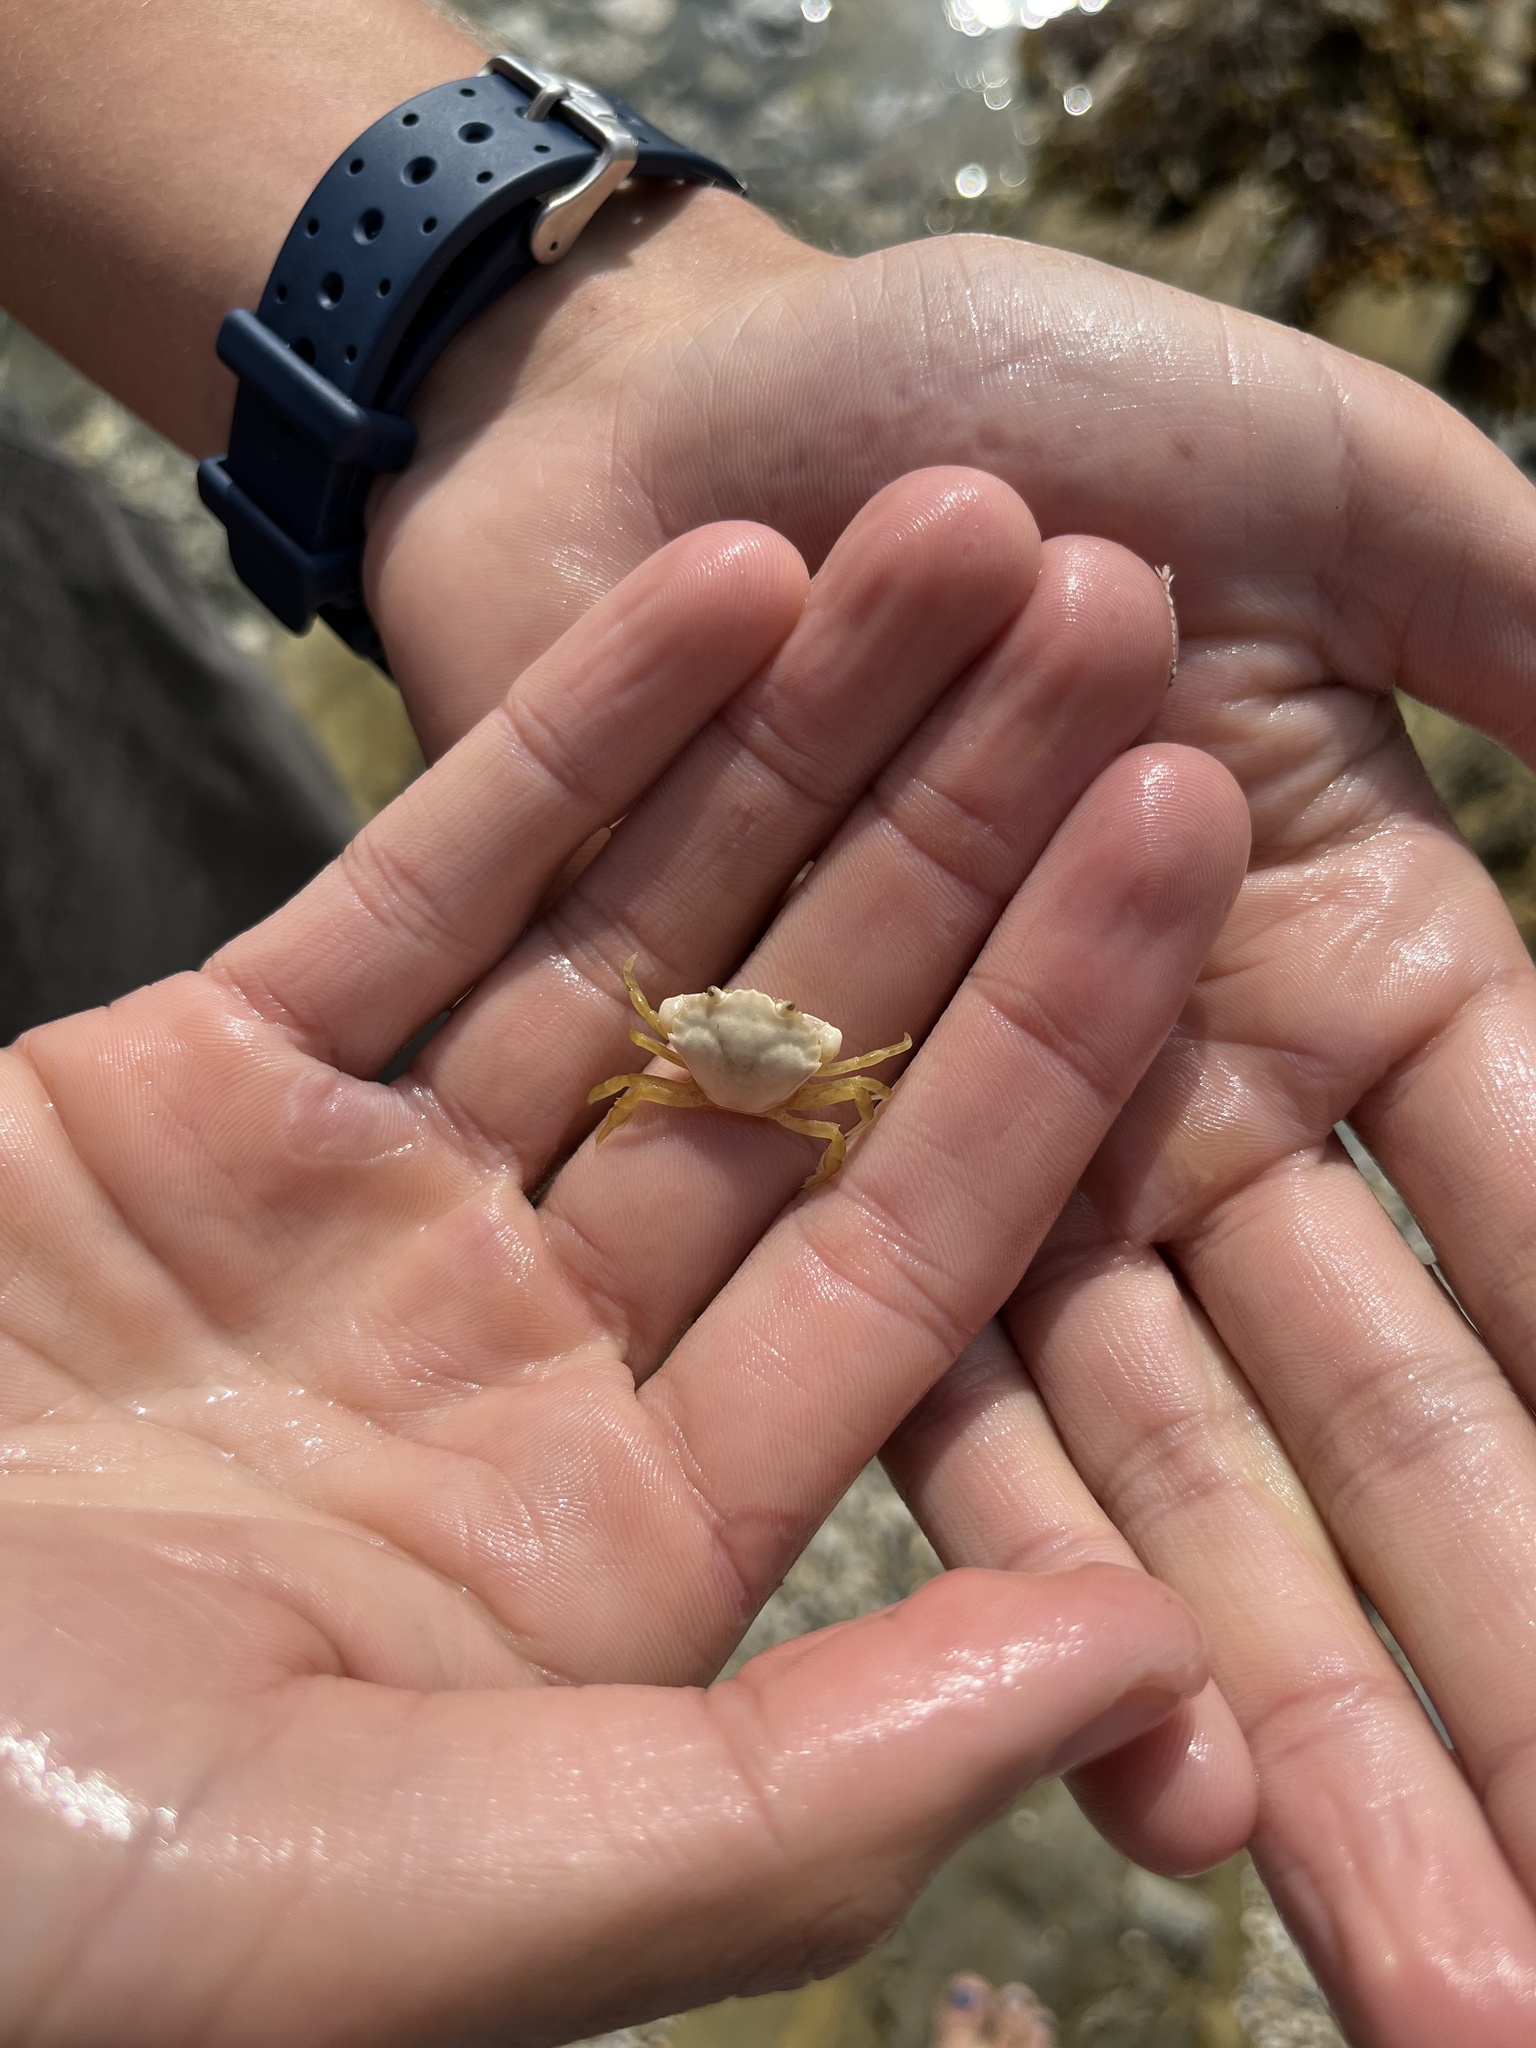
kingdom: Animalia
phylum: Arthropoda
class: Malacostraca
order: Decapoda
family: Carcinidae
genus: Carcinus
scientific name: Carcinus maenas
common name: European green crab
